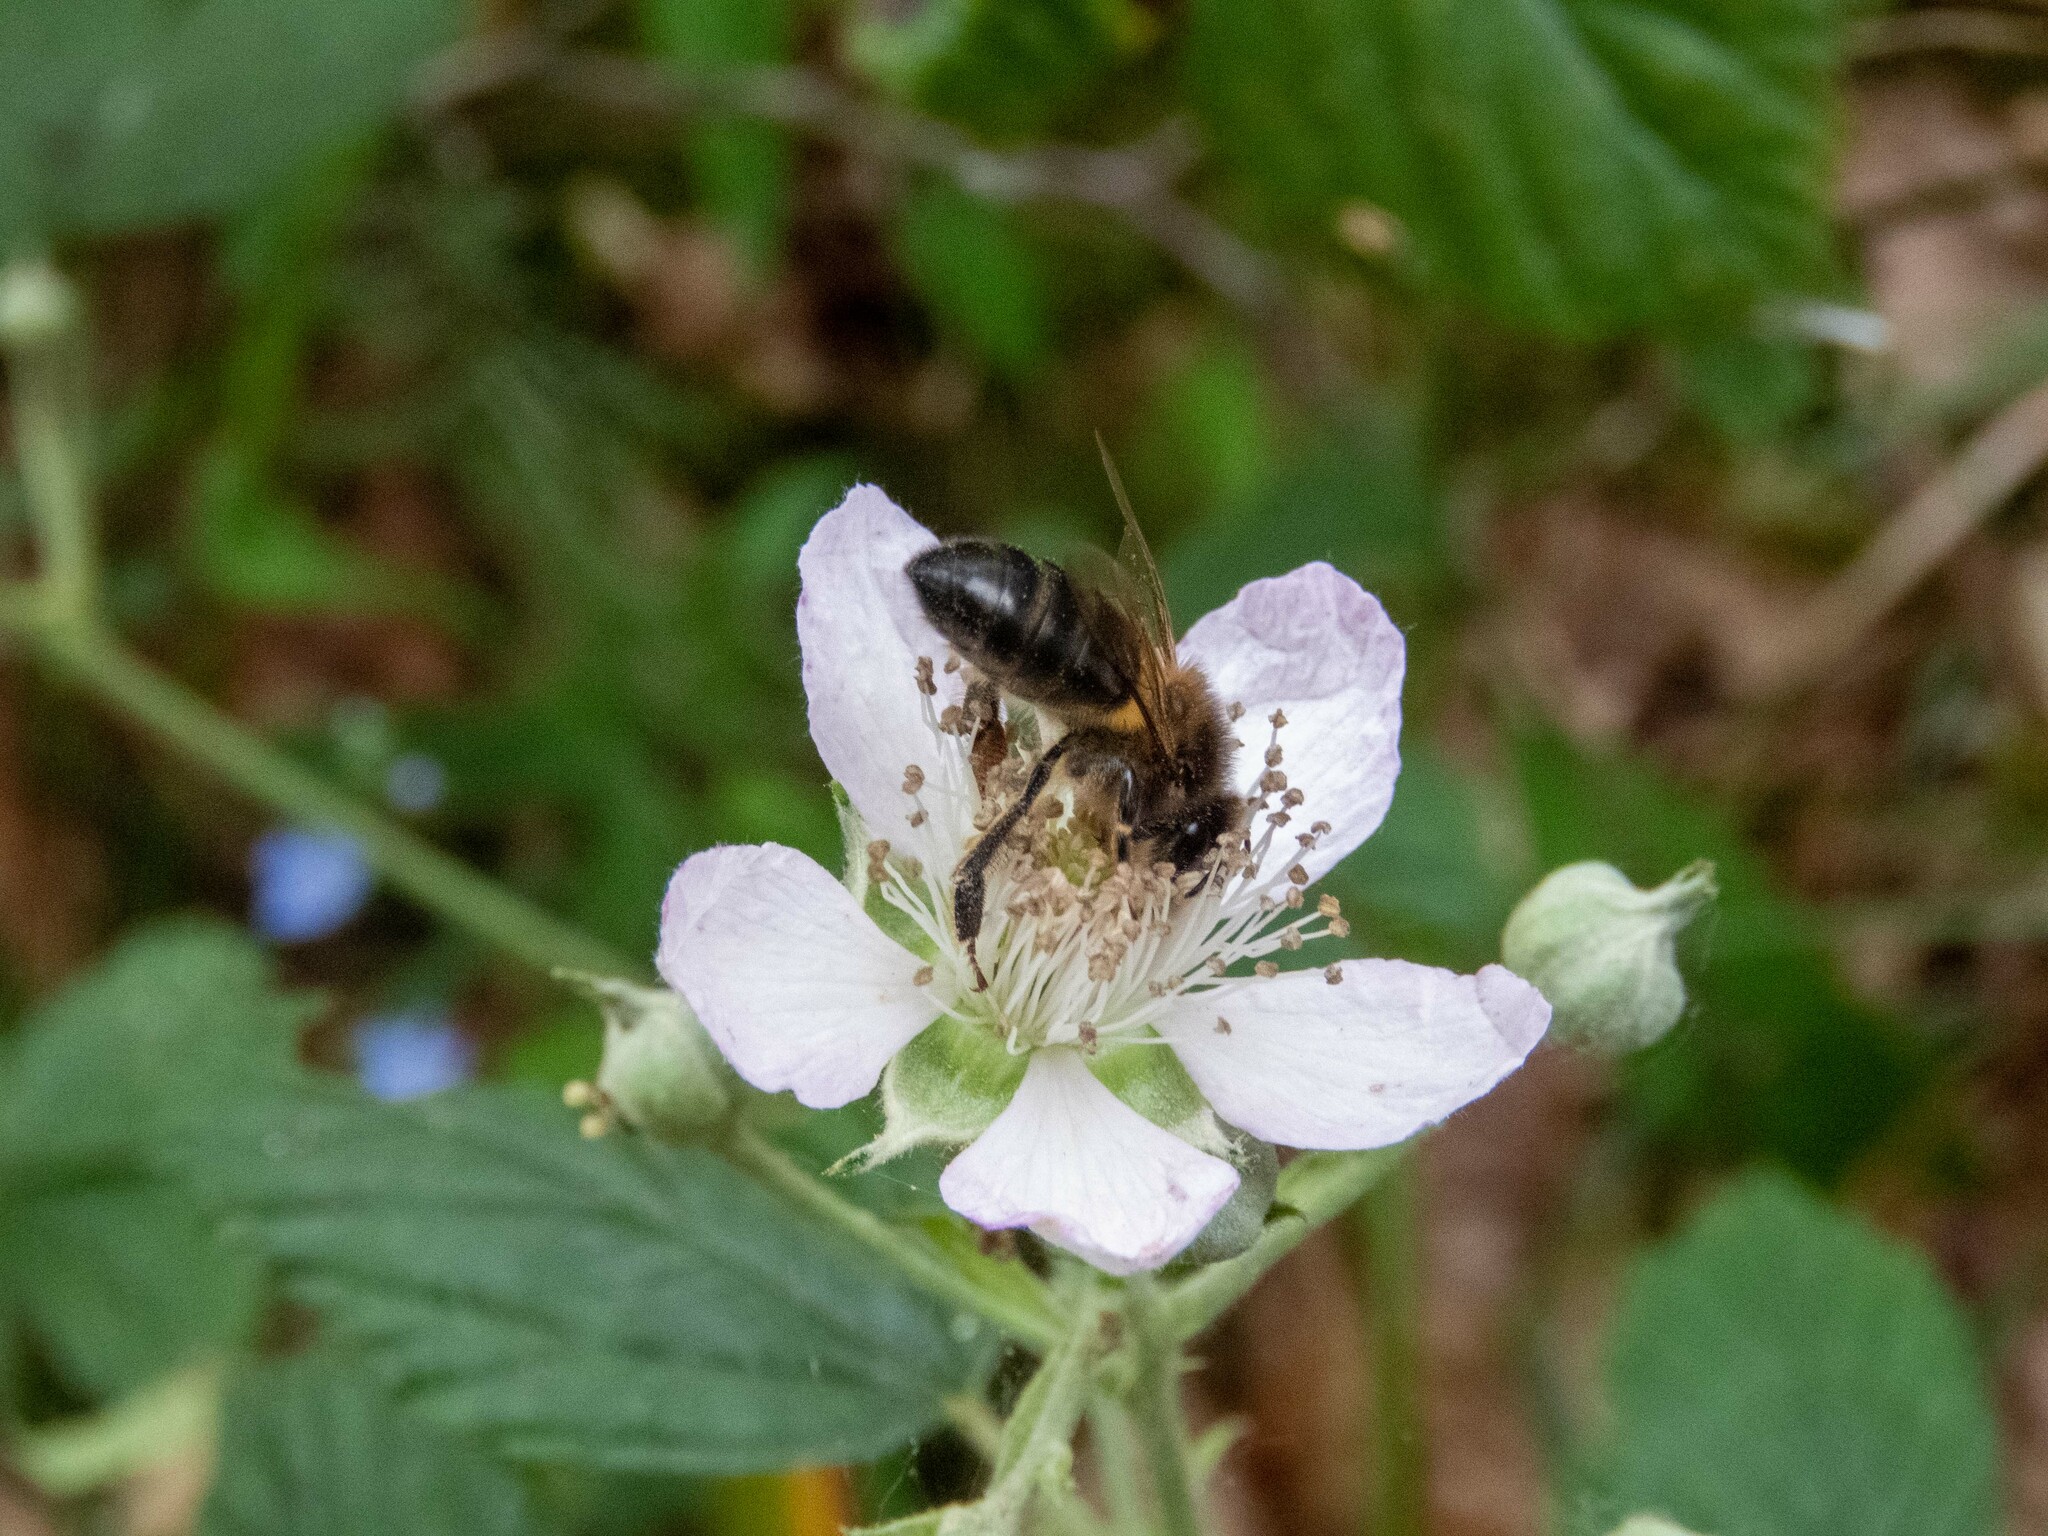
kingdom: Animalia
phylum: Arthropoda
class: Insecta
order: Hymenoptera
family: Apidae
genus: Apis
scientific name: Apis mellifera
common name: Honey bee
